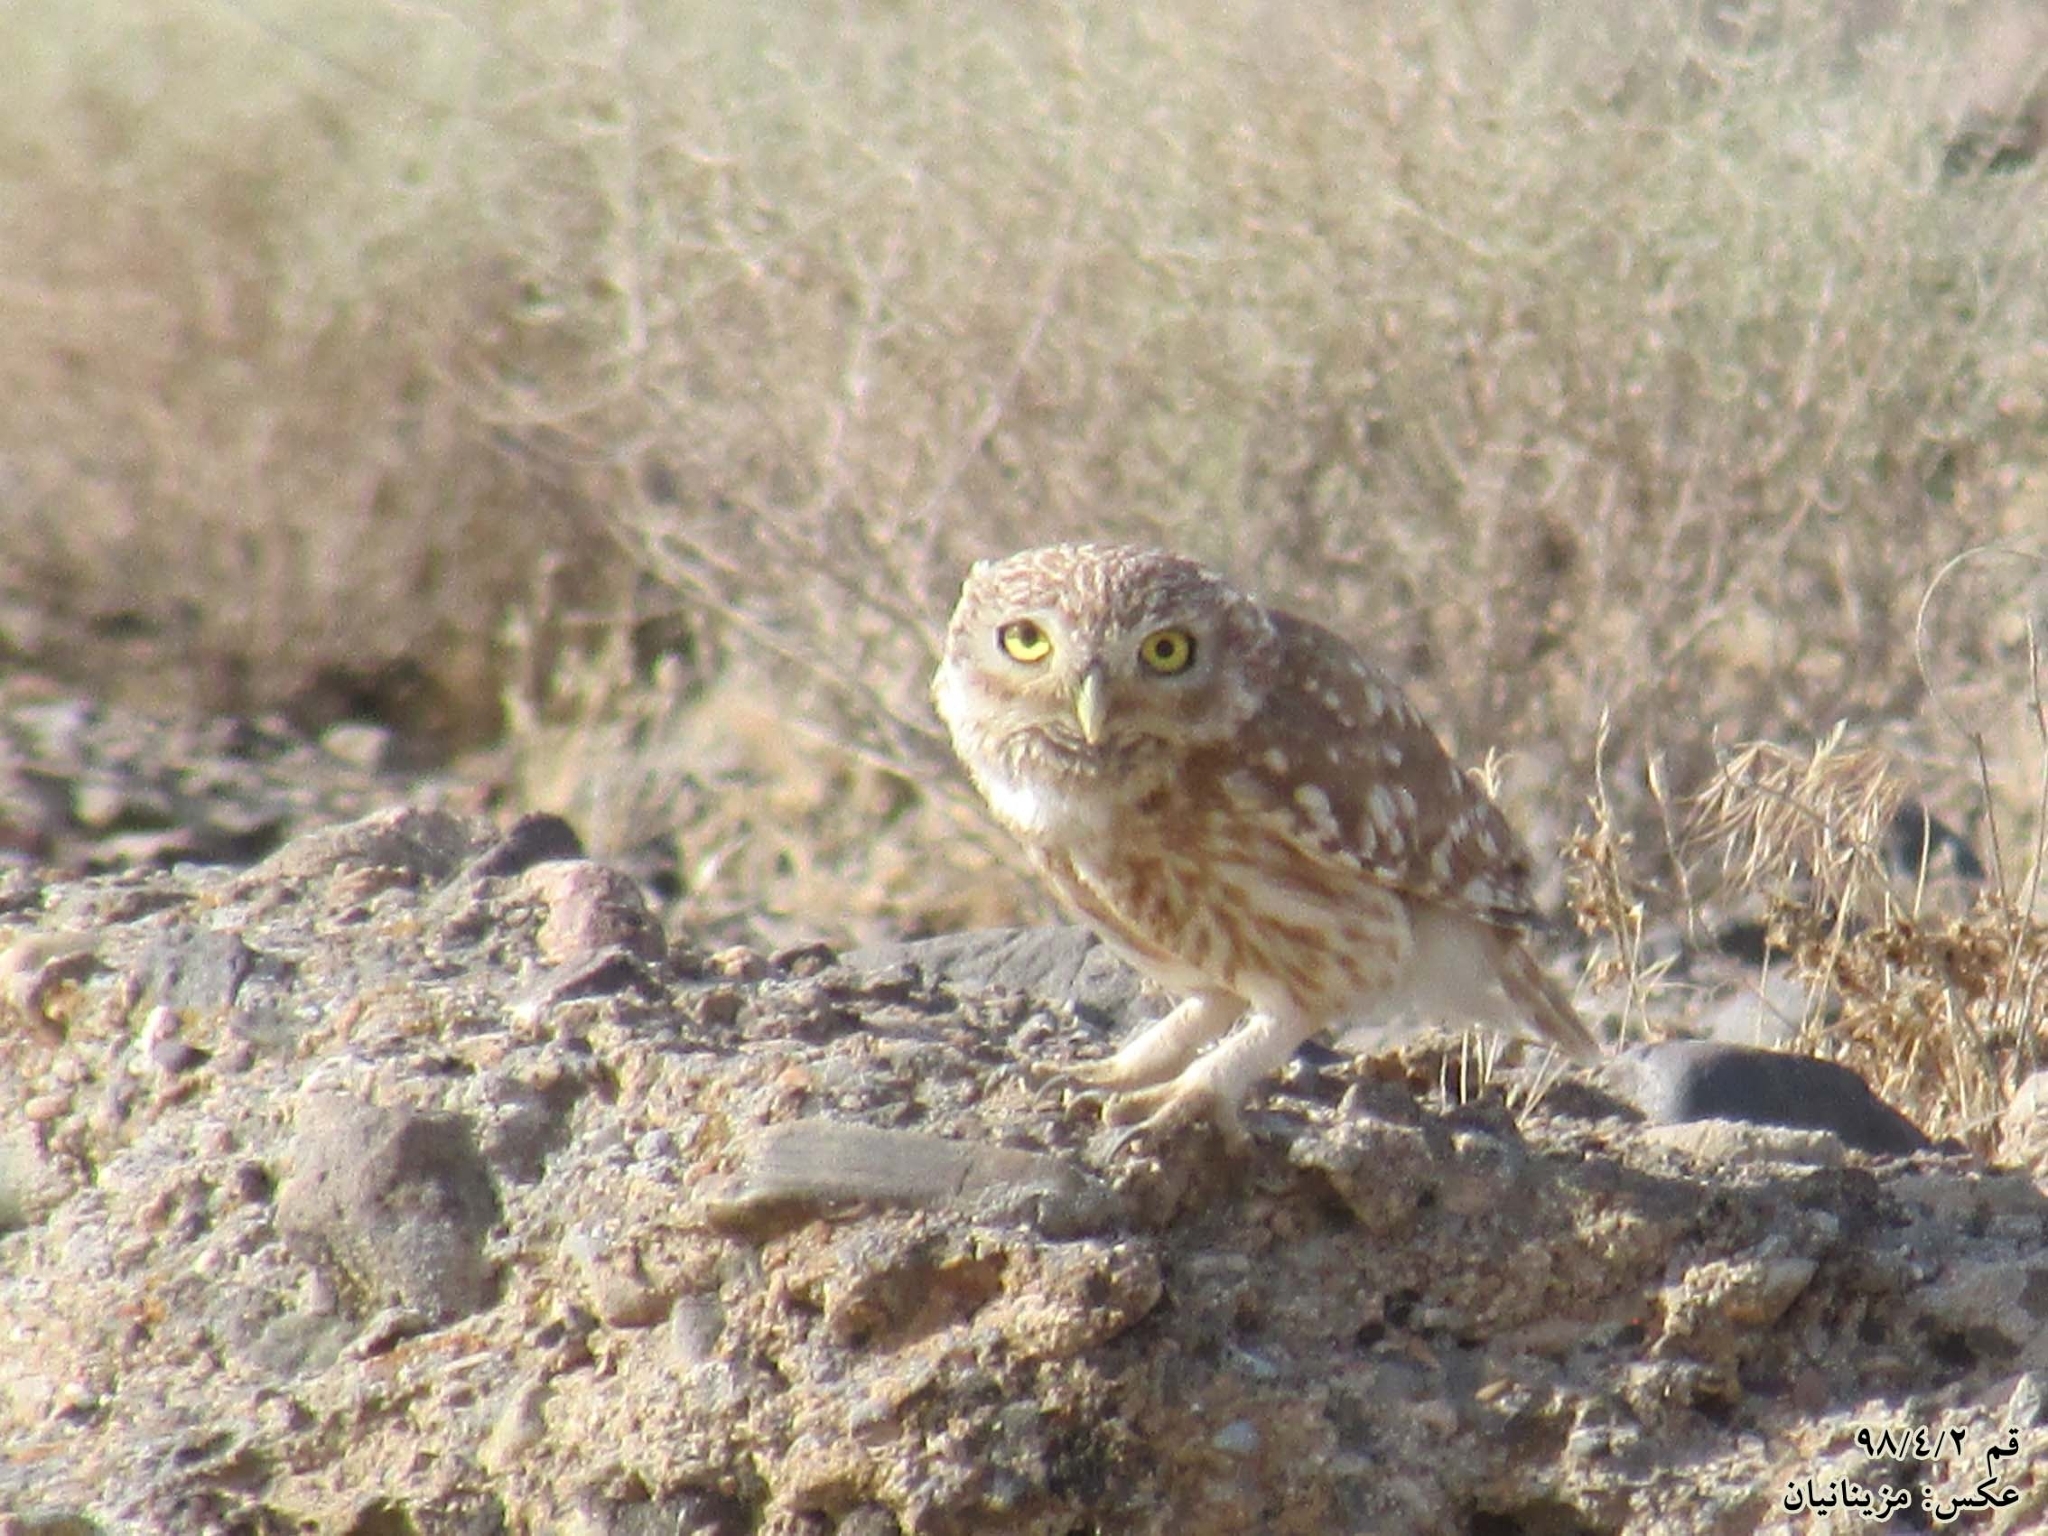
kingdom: Animalia
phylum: Chordata
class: Aves
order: Strigiformes
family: Strigidae
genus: Athene
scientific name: Athene noctua
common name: Little owl
